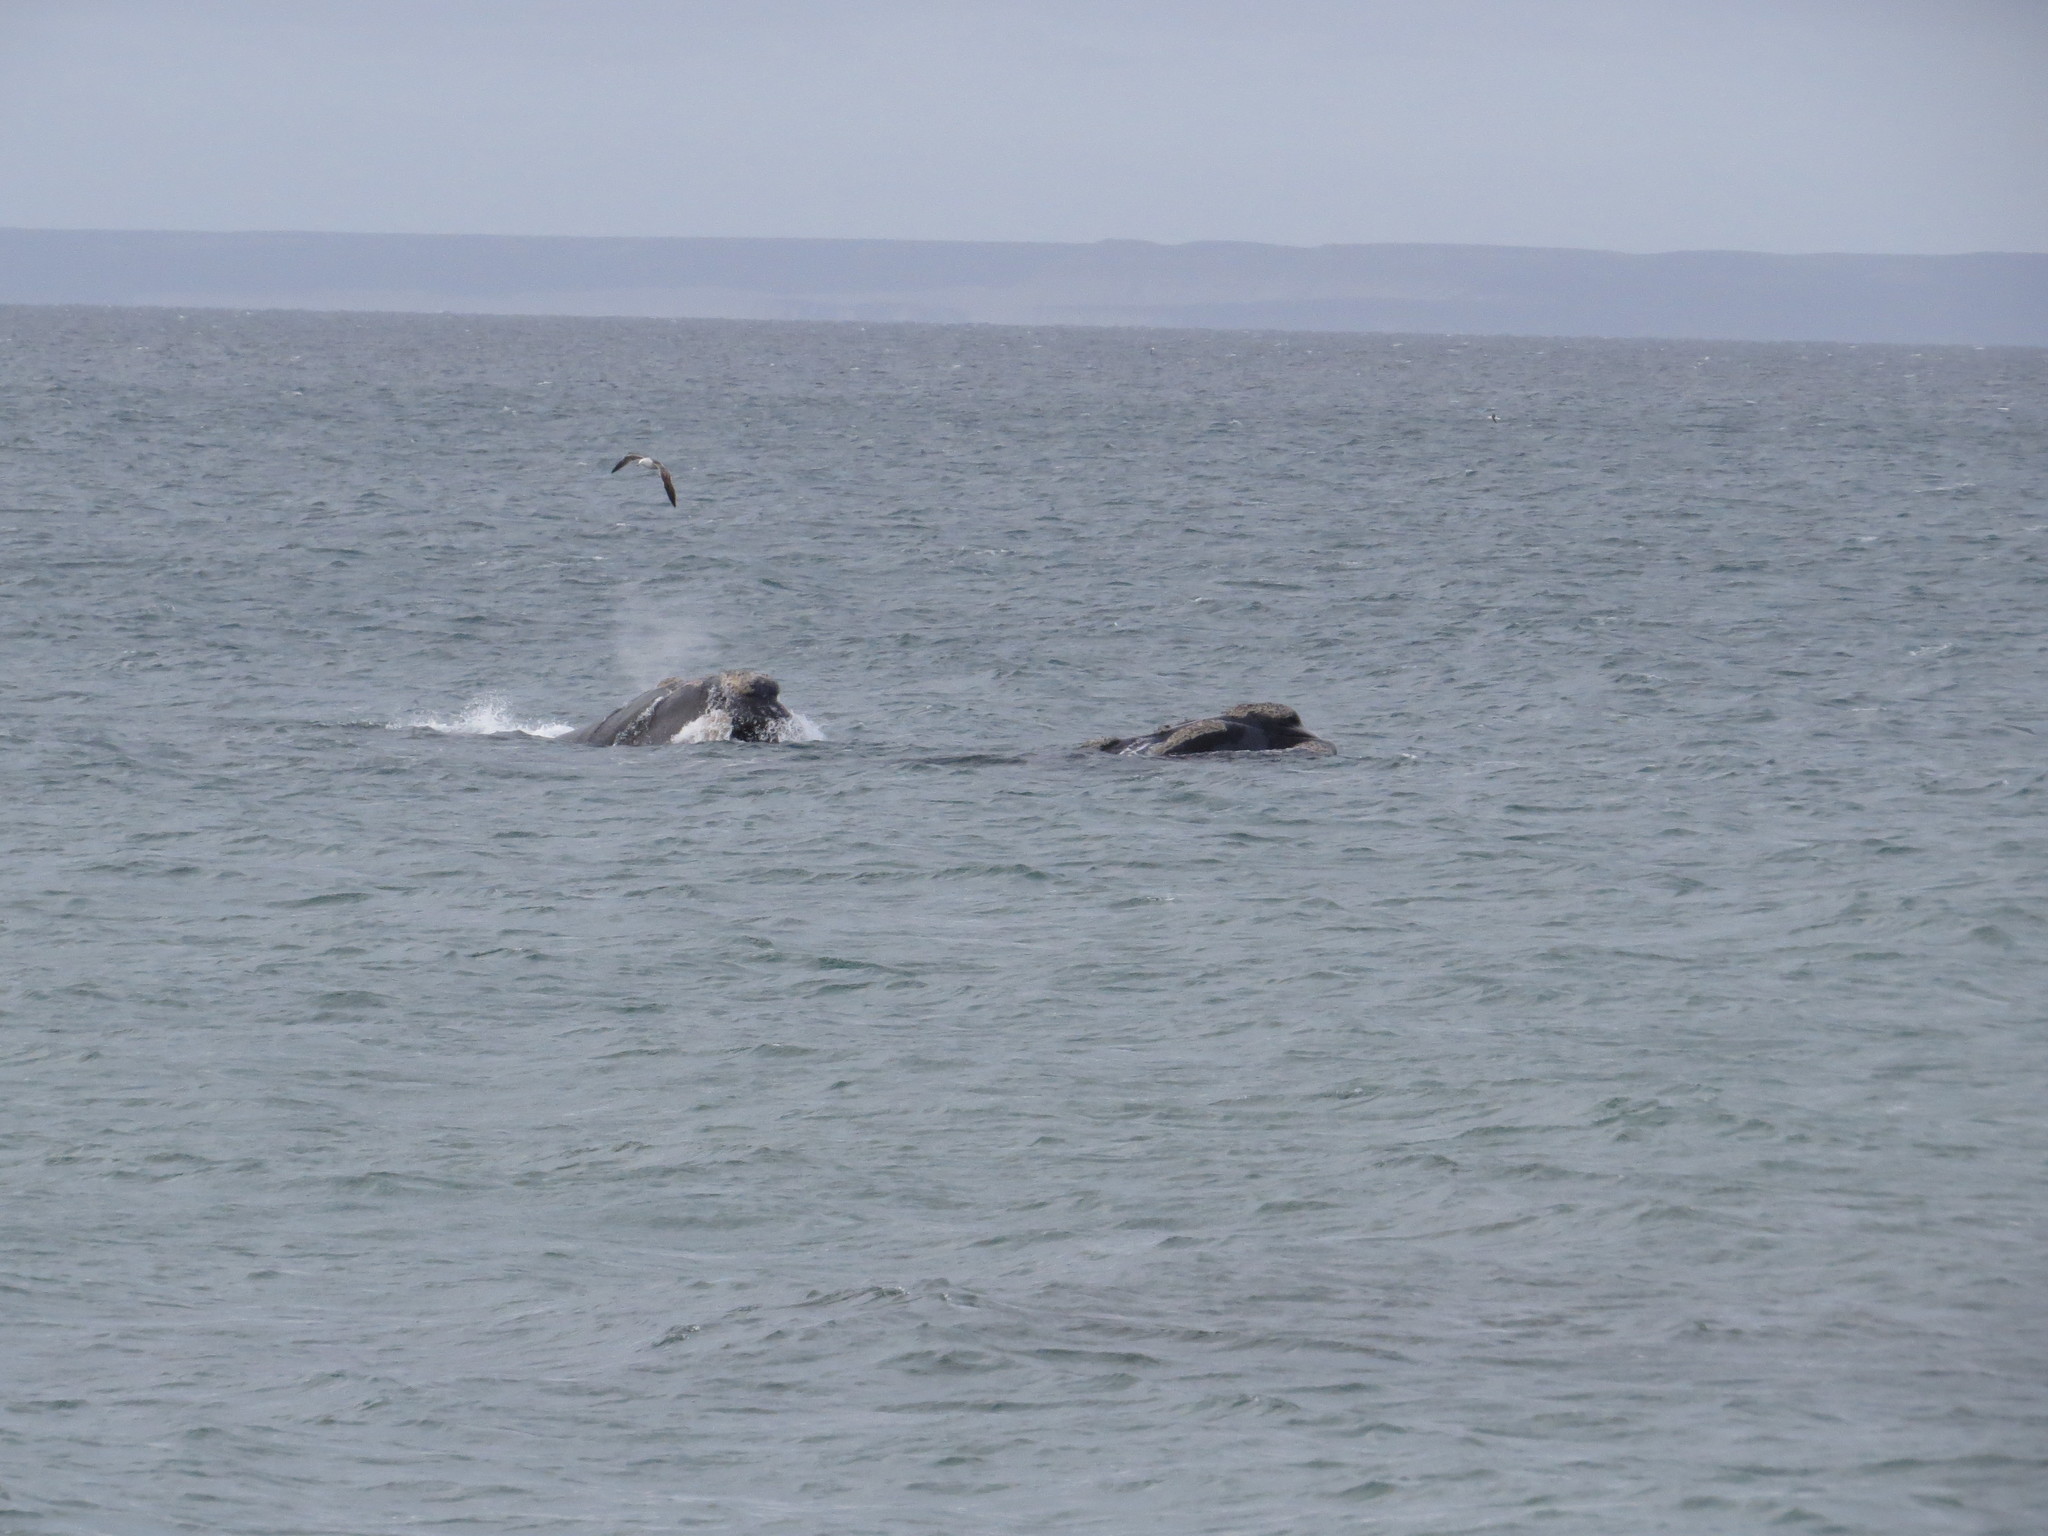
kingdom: Animalia
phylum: Chordata
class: Mammalia
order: Cetacea
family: Balaenidae
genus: Eubalaena
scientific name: Eubalaena australis
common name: Southern right whale
